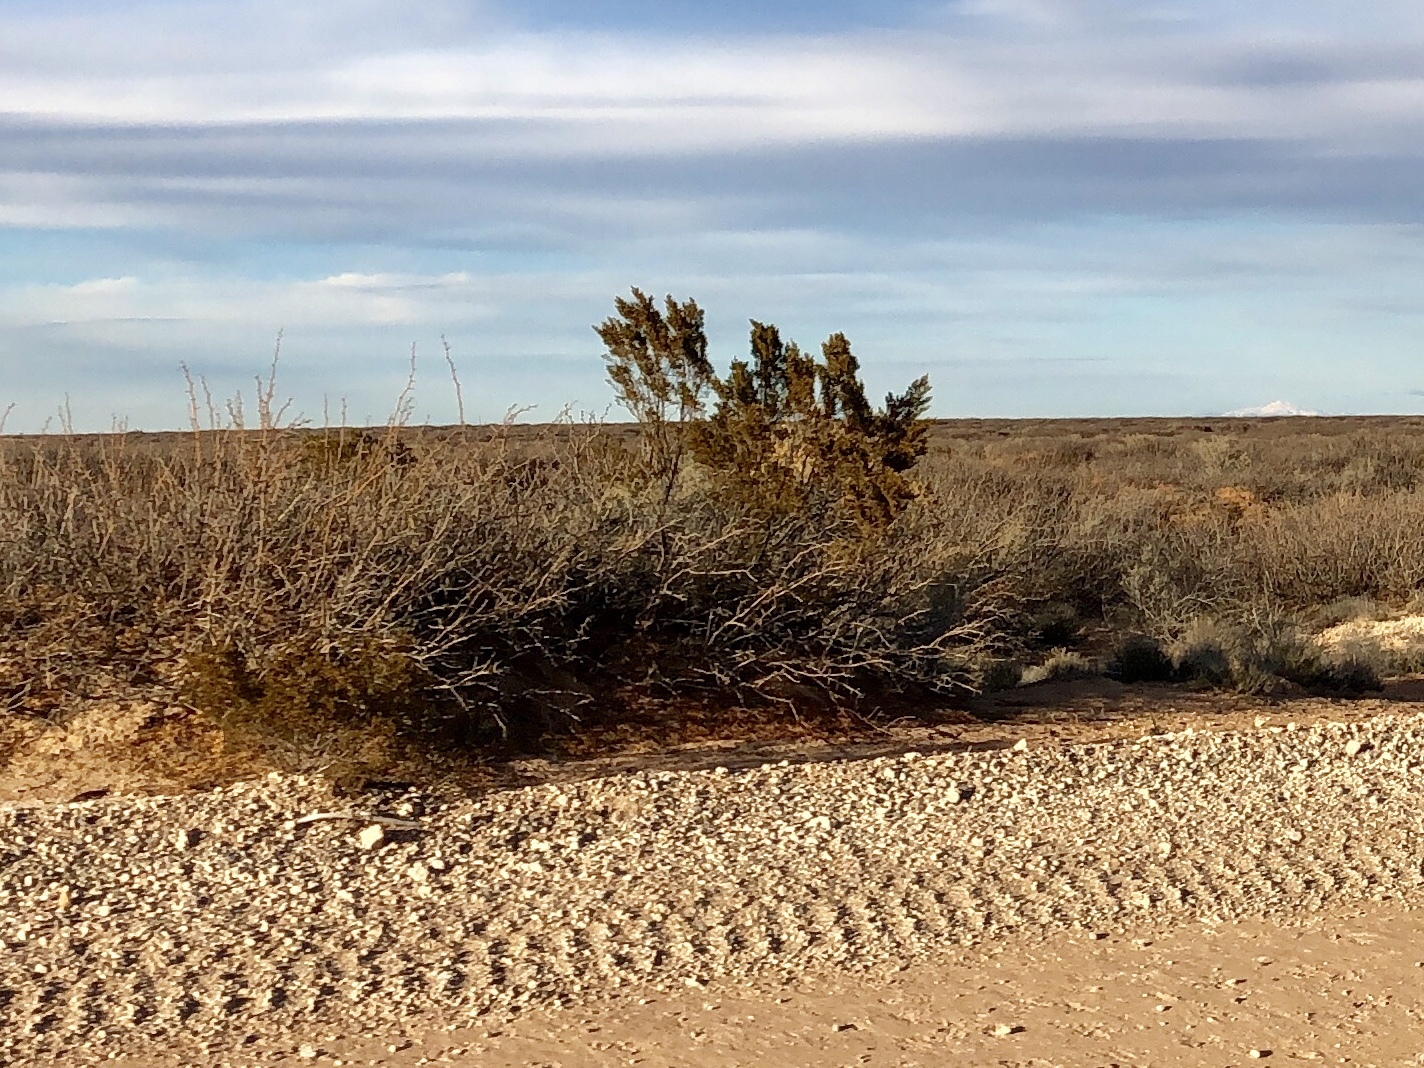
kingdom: Plantae
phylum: Tracheophyta
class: Magnoliopsida
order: Zygophyllales
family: Zygophyllaceae
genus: Larrea
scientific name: Larrea tridentata
